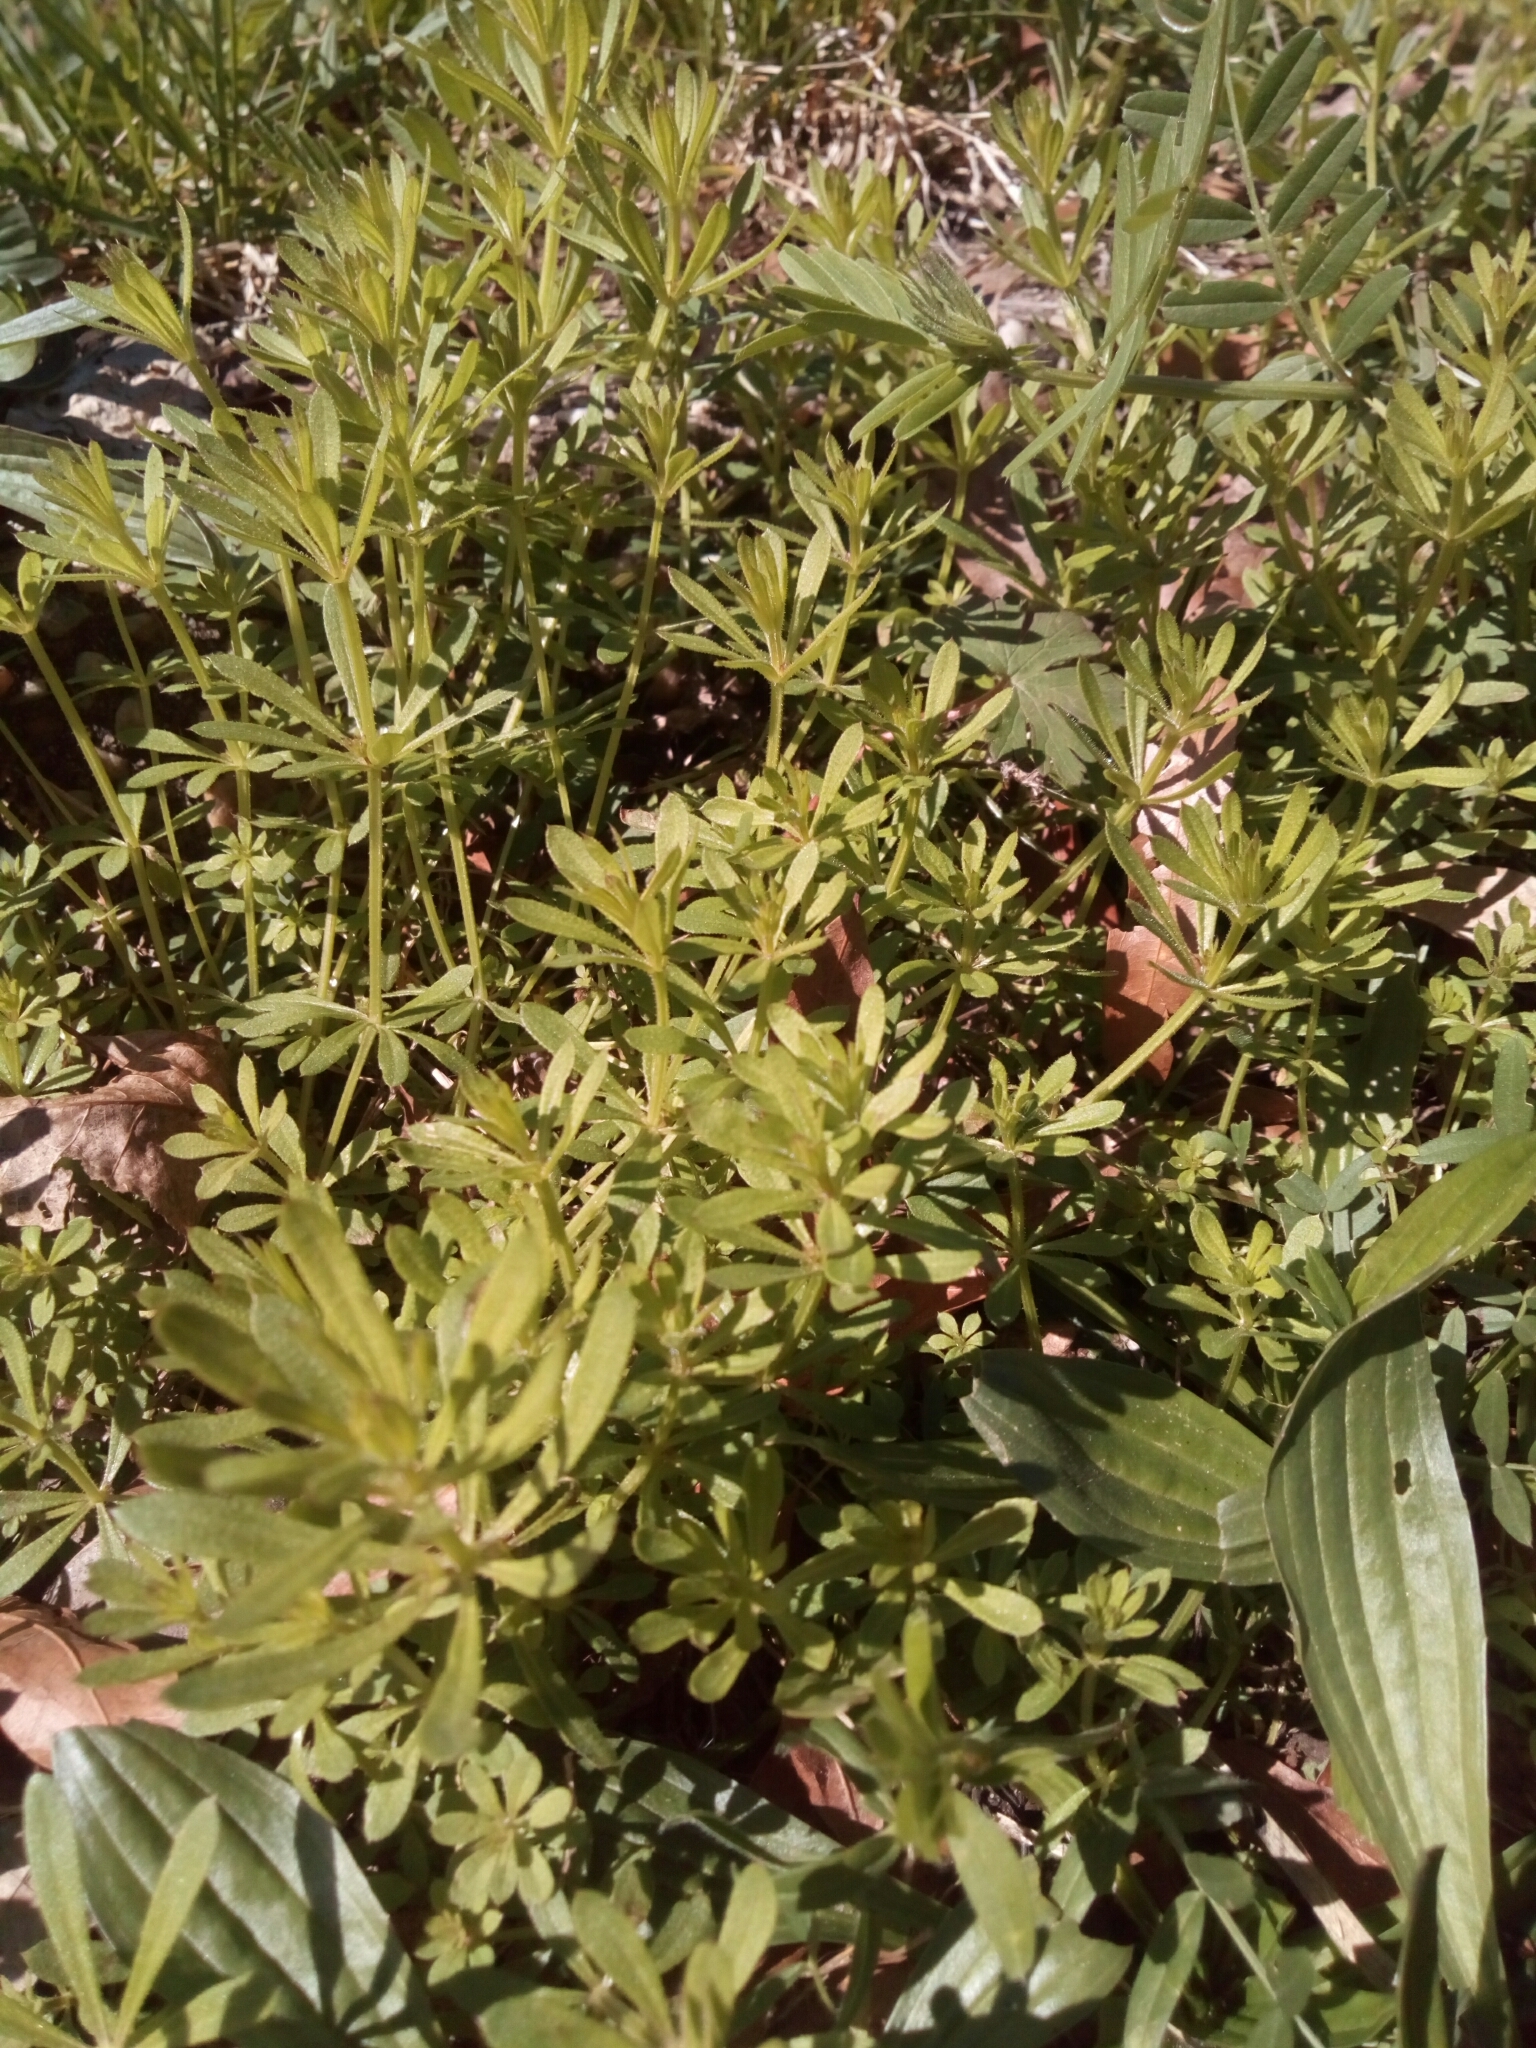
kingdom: Plantae
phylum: Tracheophyta
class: Magnoliopsida
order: Gentianales
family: Rubiaceae
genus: Galium
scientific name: Galium aparine
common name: Cleavers
